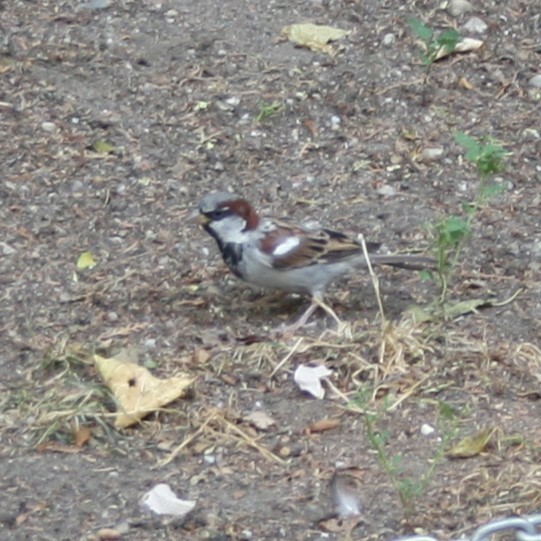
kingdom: Animalia
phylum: Chordata
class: Aves
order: Passeriformes
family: Passeridae
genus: Passer
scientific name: Passer domesticus
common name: House sparrow
